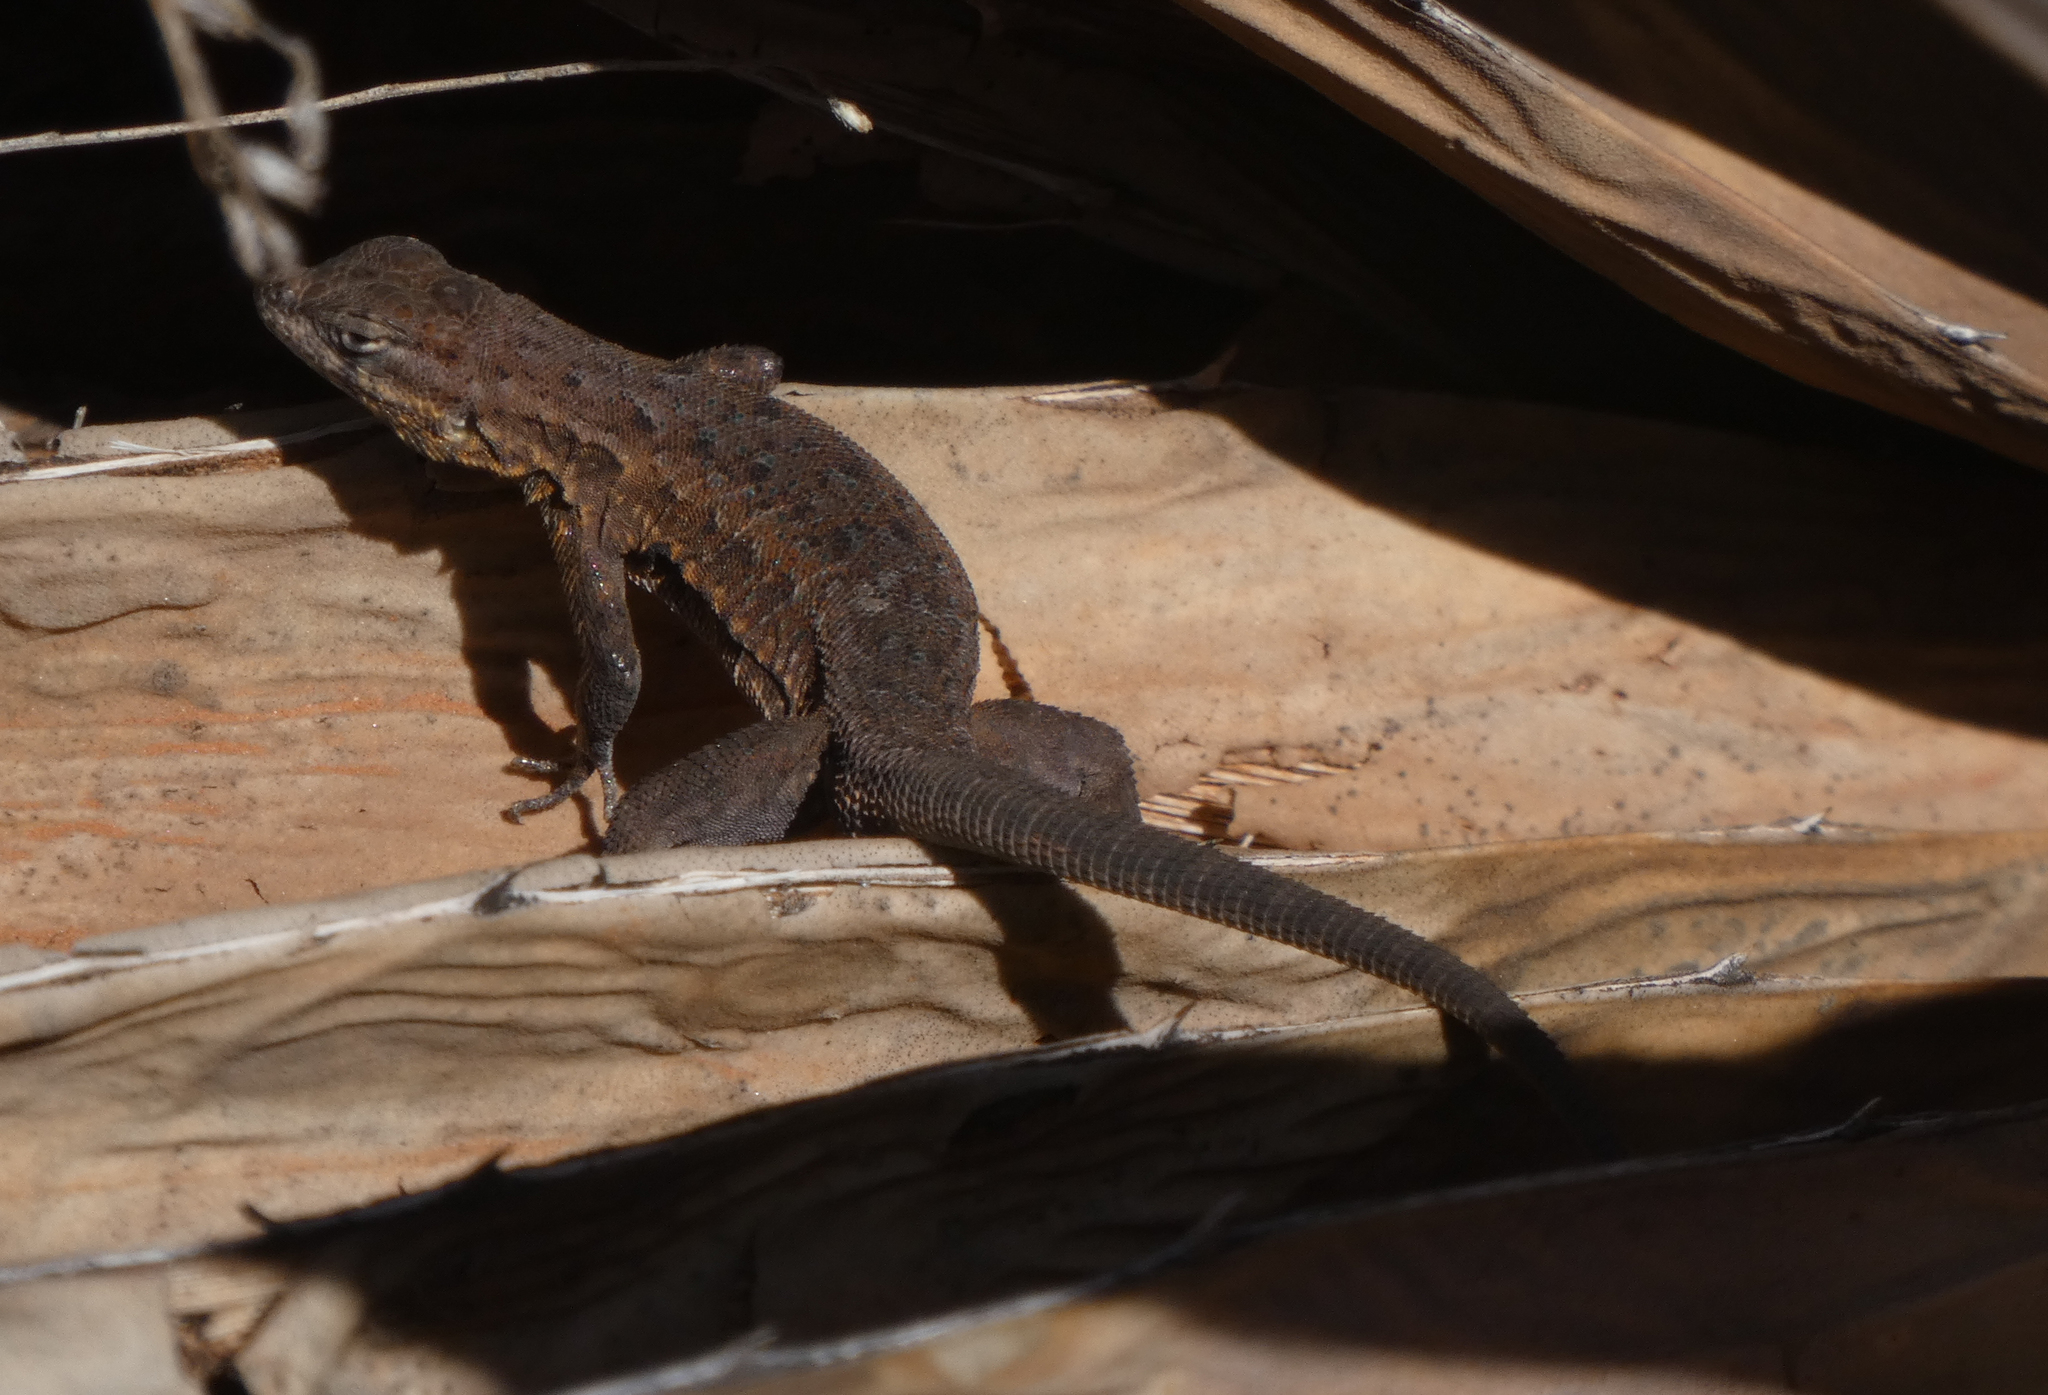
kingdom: Animalia
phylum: Chordata
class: Squamata
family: Phrynosomatidae
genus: Uta
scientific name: Uta stansburiana
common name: Side-blotched lizard
